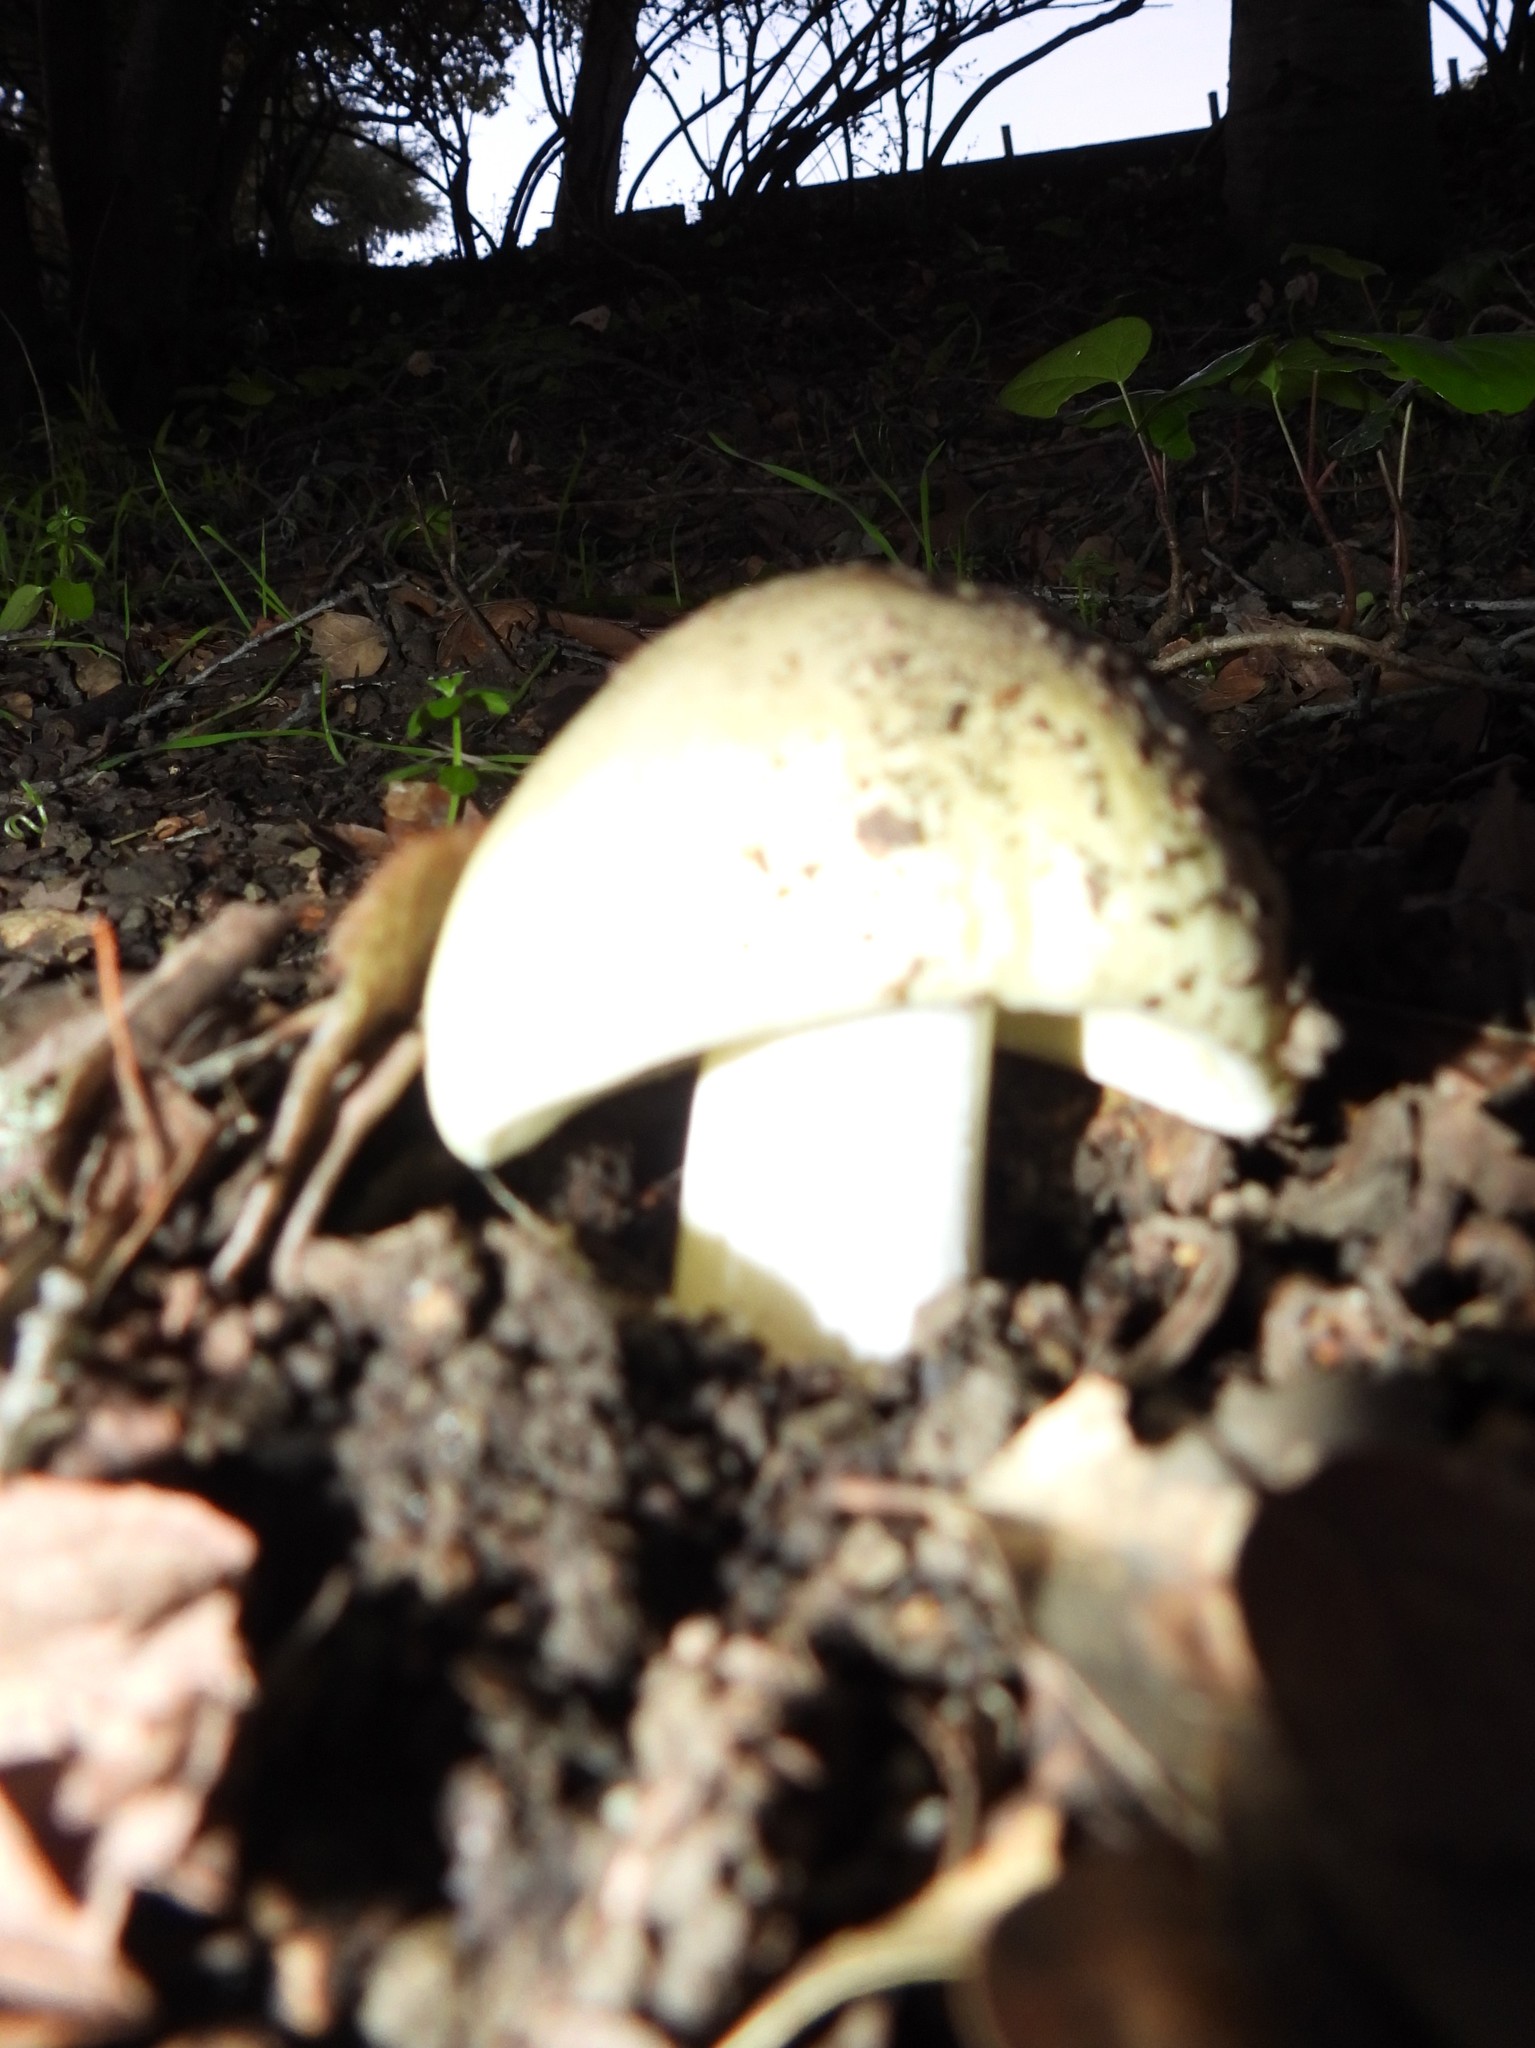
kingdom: Fungi
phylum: Basidiomycota
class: Agaricomycetes
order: Agaricales
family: Amanitaceae
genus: Amanita
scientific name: Amanita phalloides
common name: Death cap
